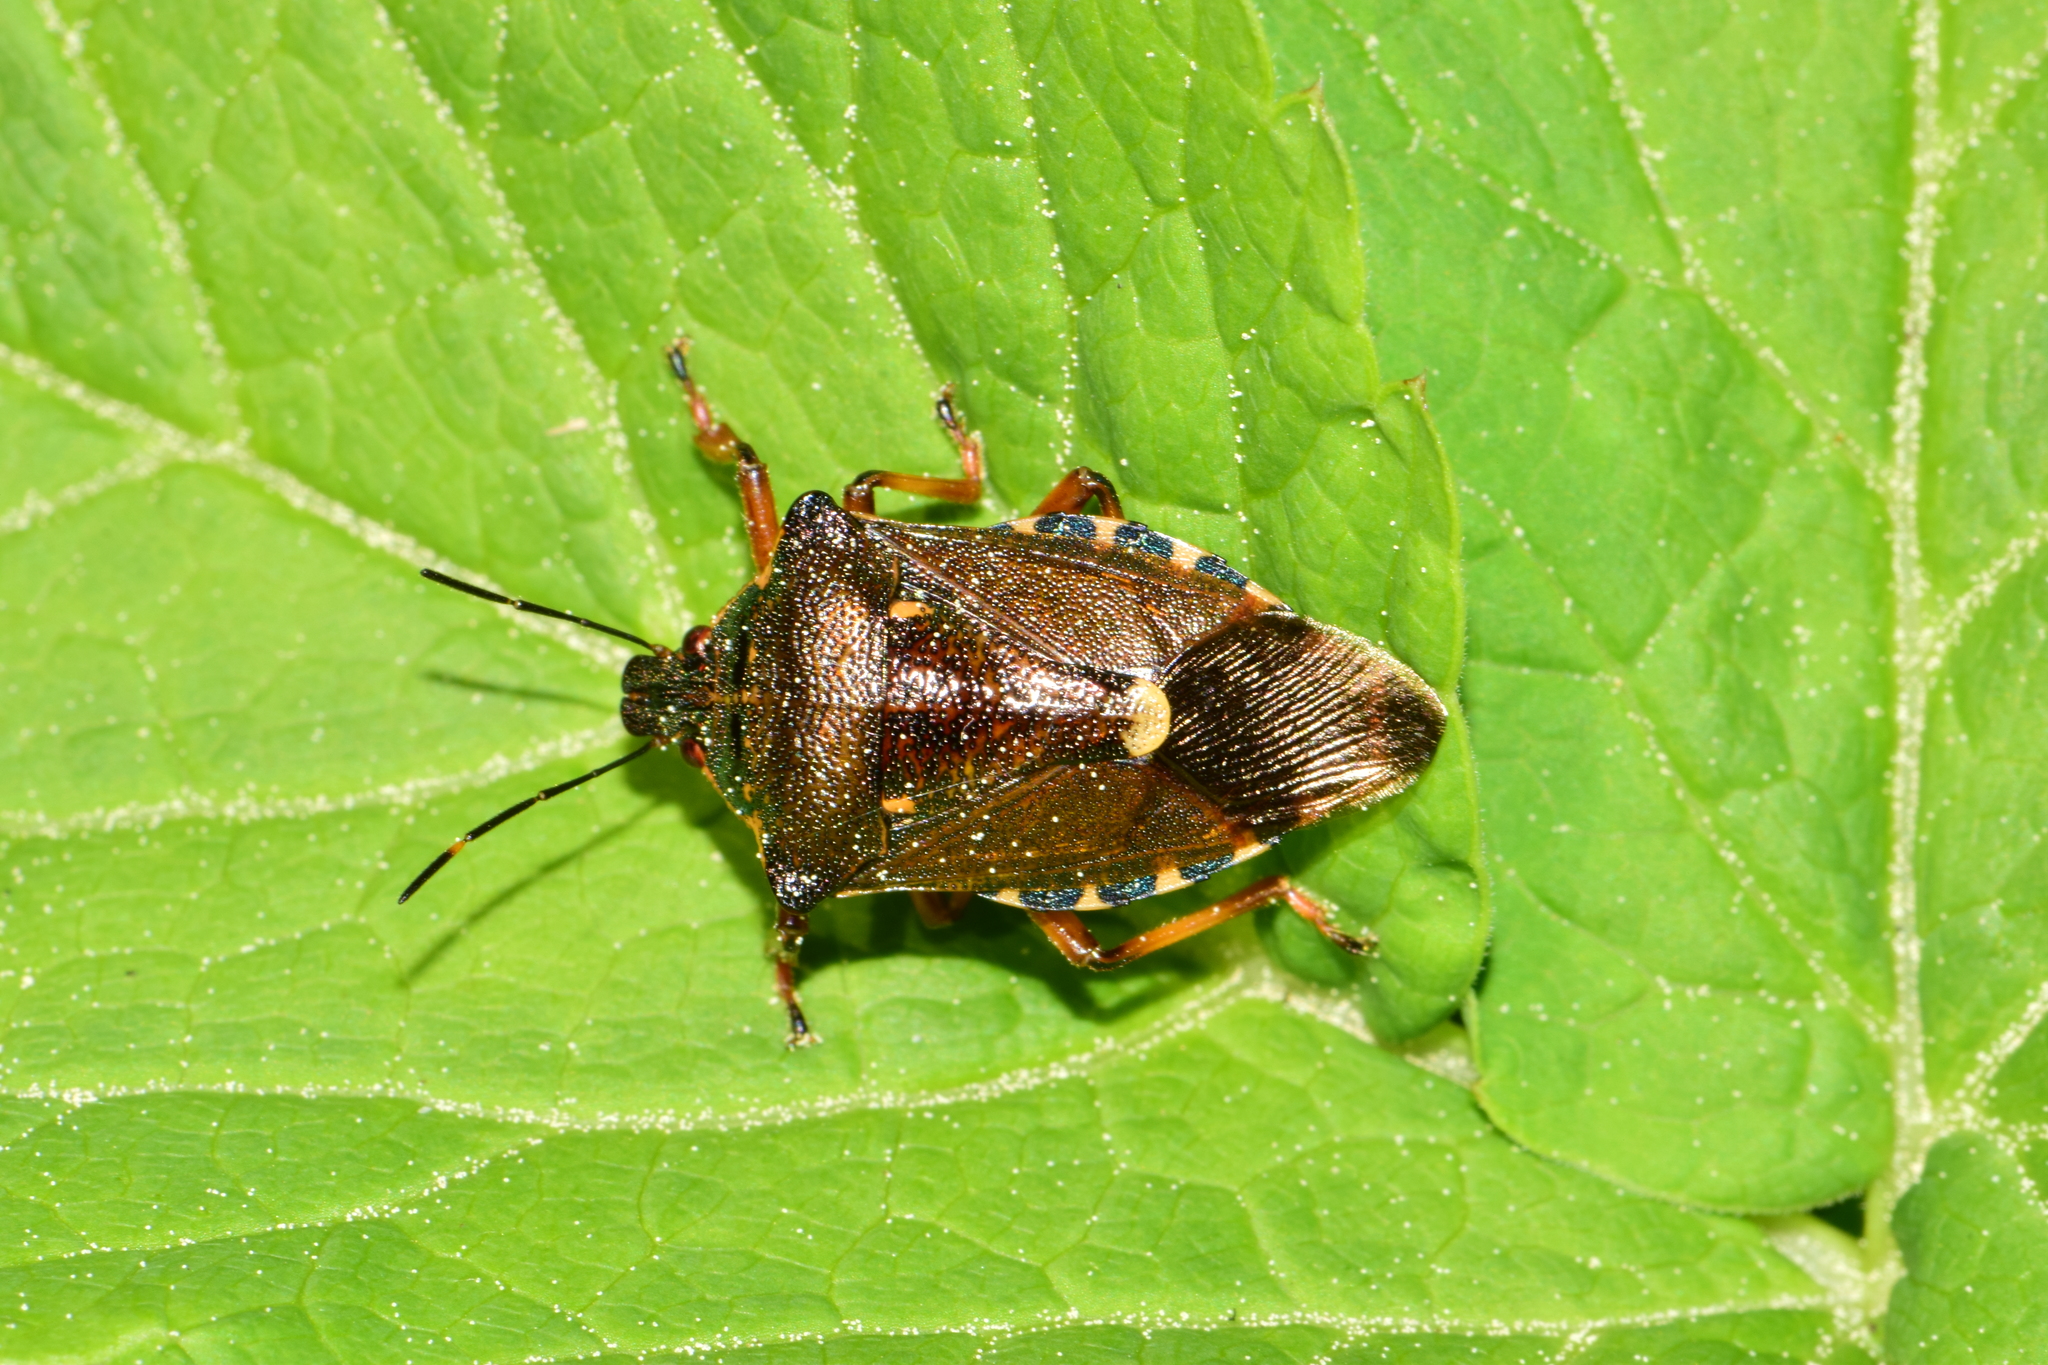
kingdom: Animalia
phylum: Arthropoda
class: Insecta
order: Hemiptera
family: Pentatomidae
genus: Pinthaeus
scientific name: Pinthaeus sanguinipes
